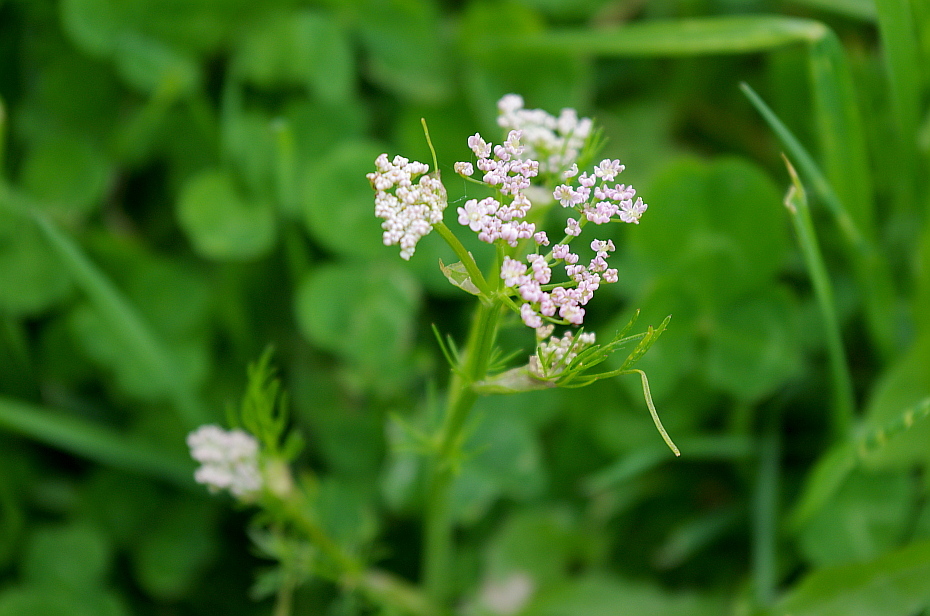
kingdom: Plantae
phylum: Tracheophyta
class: Magnoliopsida
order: Apiales
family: Apiaceae
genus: Carum
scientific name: Carum carvi
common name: Caraway
